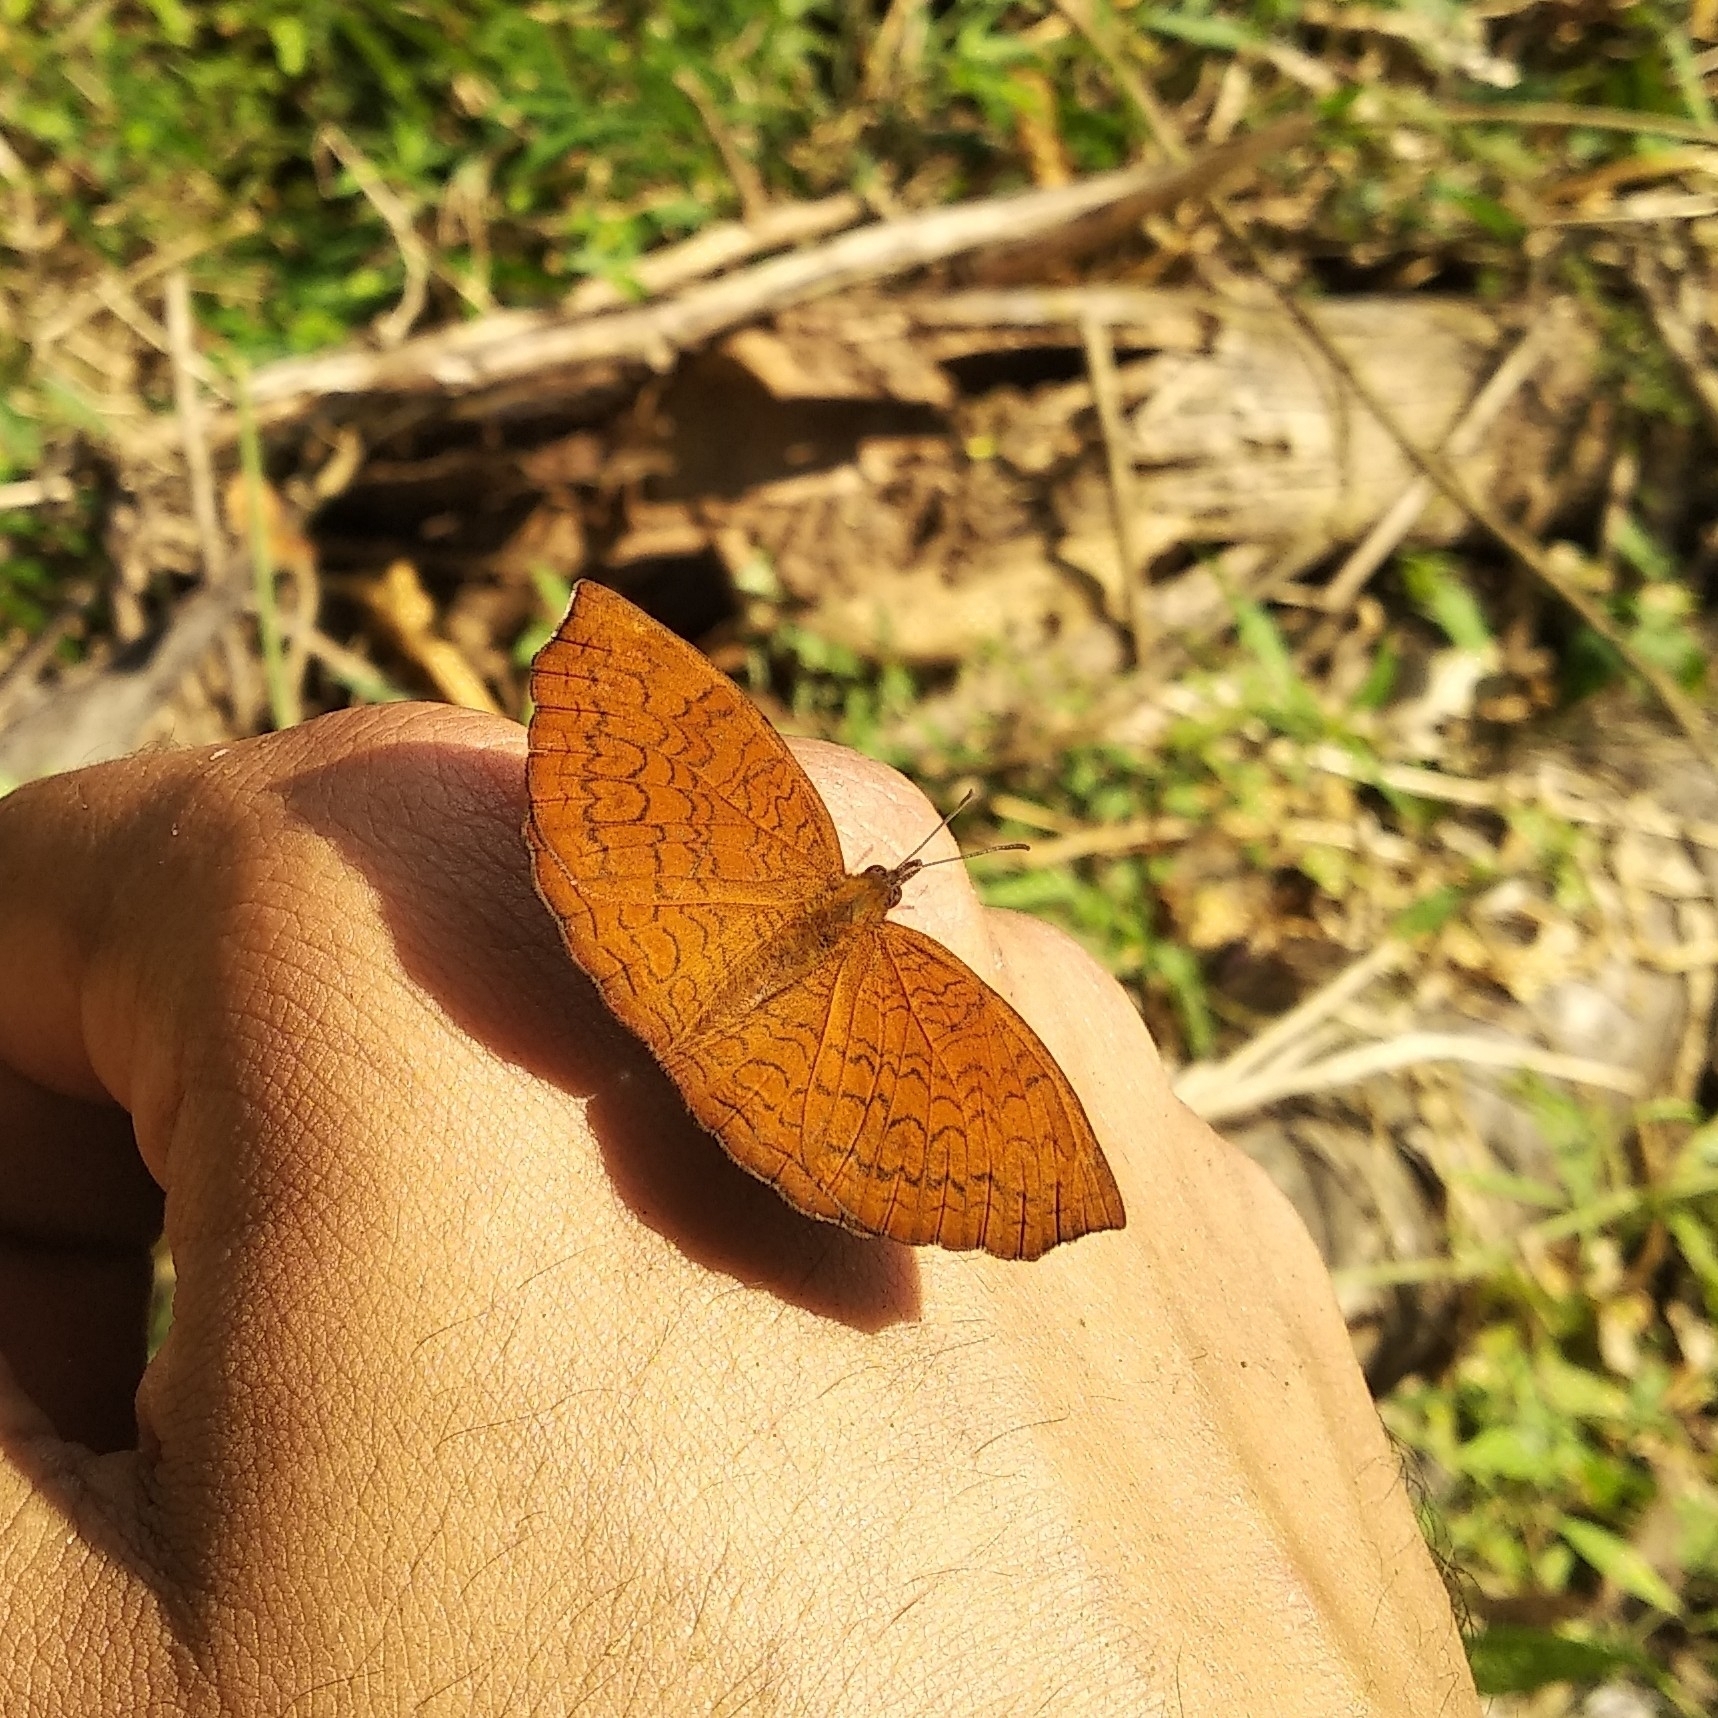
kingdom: Animalia
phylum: Arthropoda
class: Insecta
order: Lepidoptera
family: Nymphalidae
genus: Ariadne
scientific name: Ariadne merione
